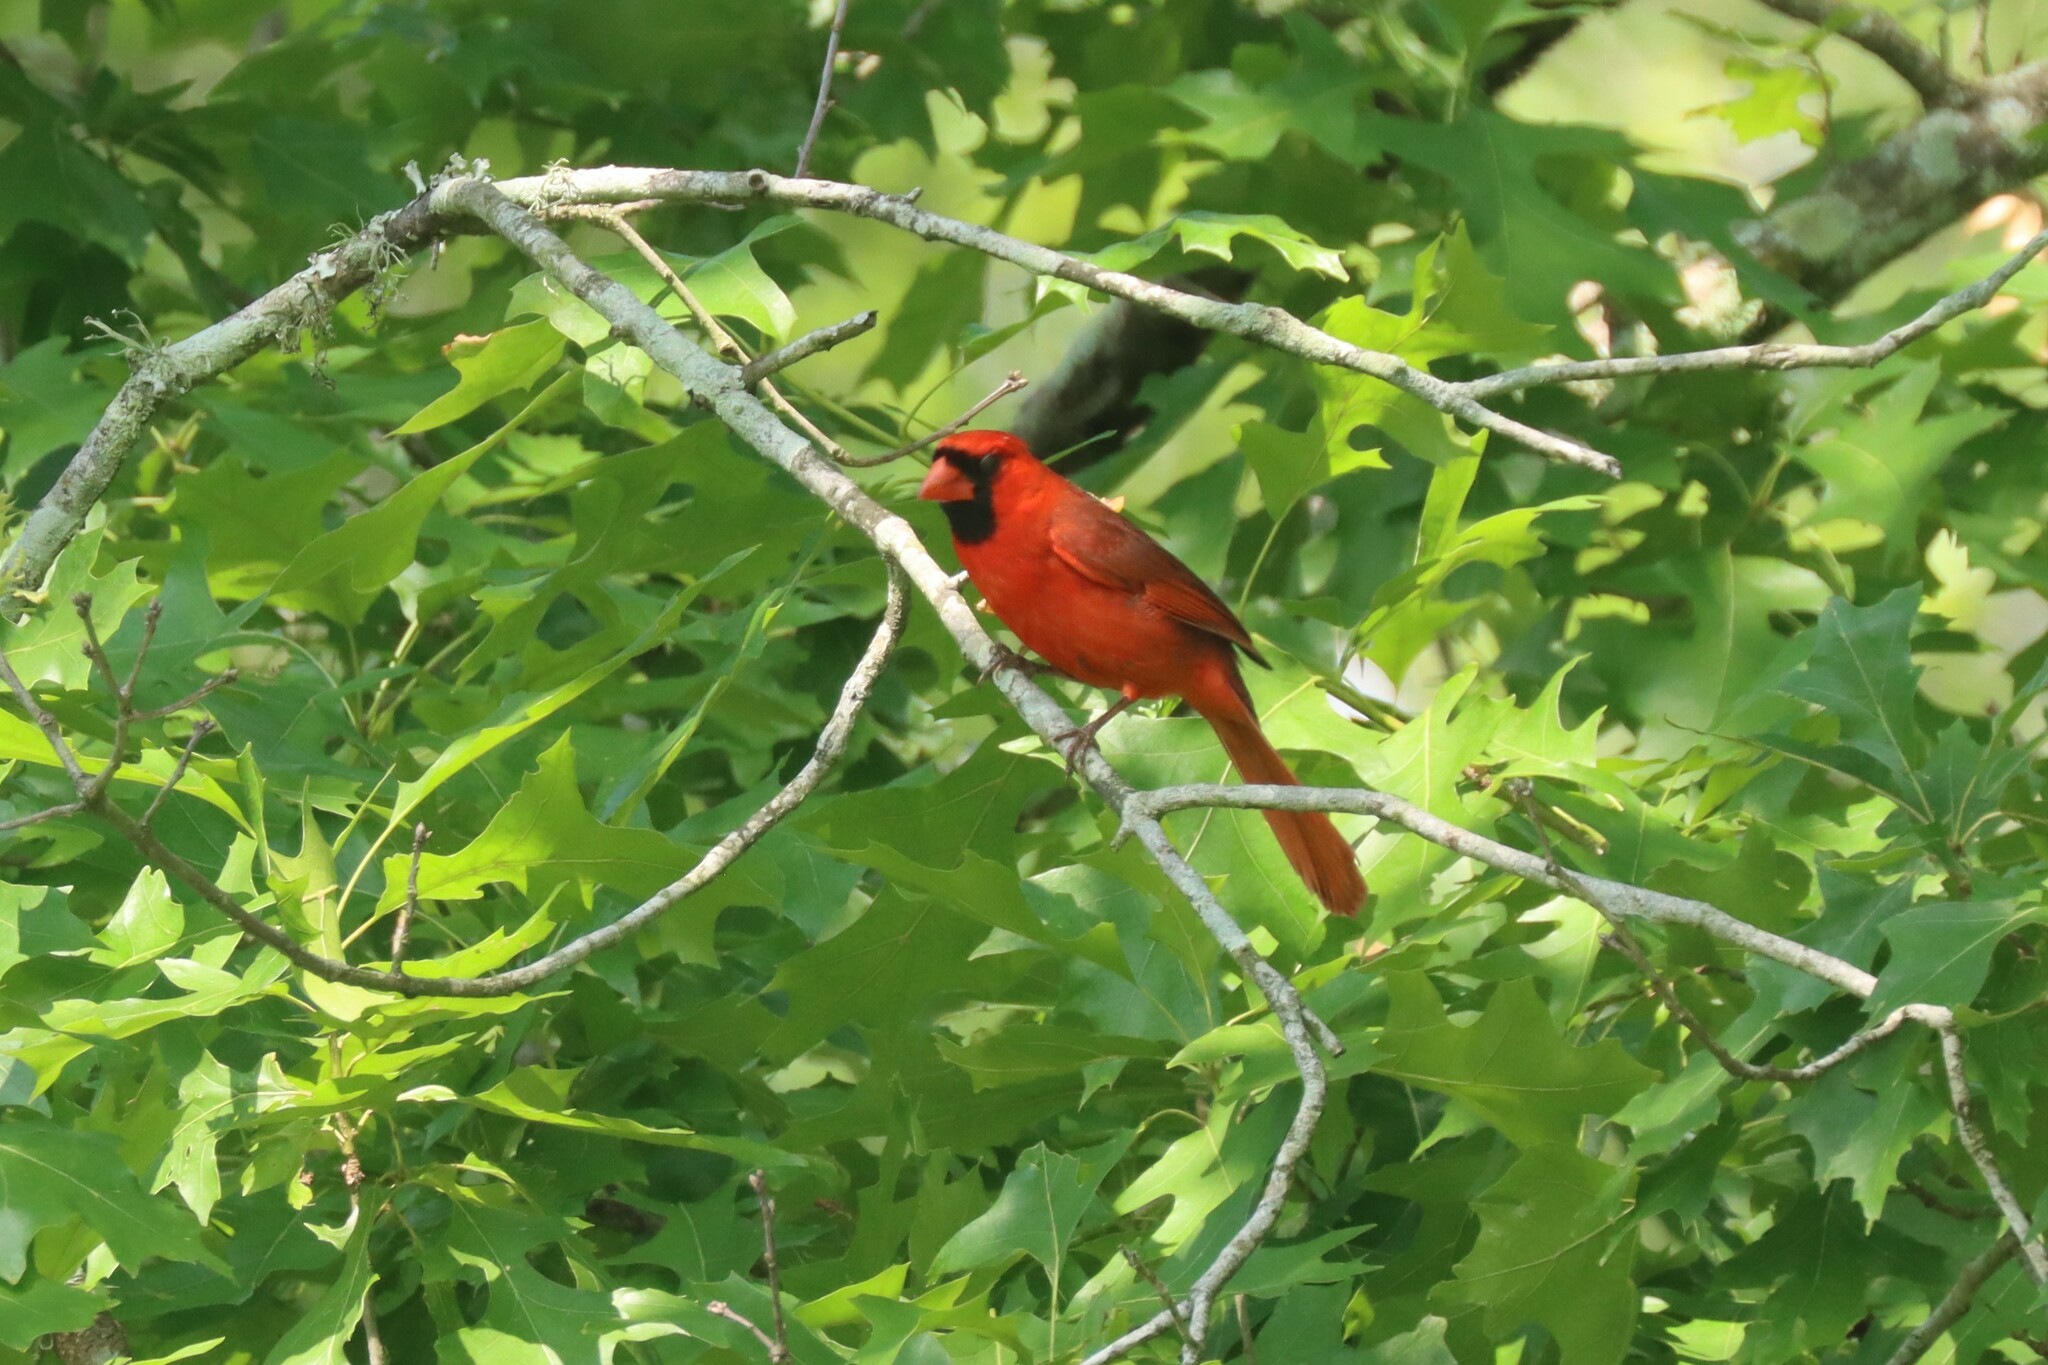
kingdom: Animalia
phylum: Chordata
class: Aves
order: Passeriformes
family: Cardinalidae
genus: Cardinalis
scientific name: Cardinalis cardinalis
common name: Northern cardinal
